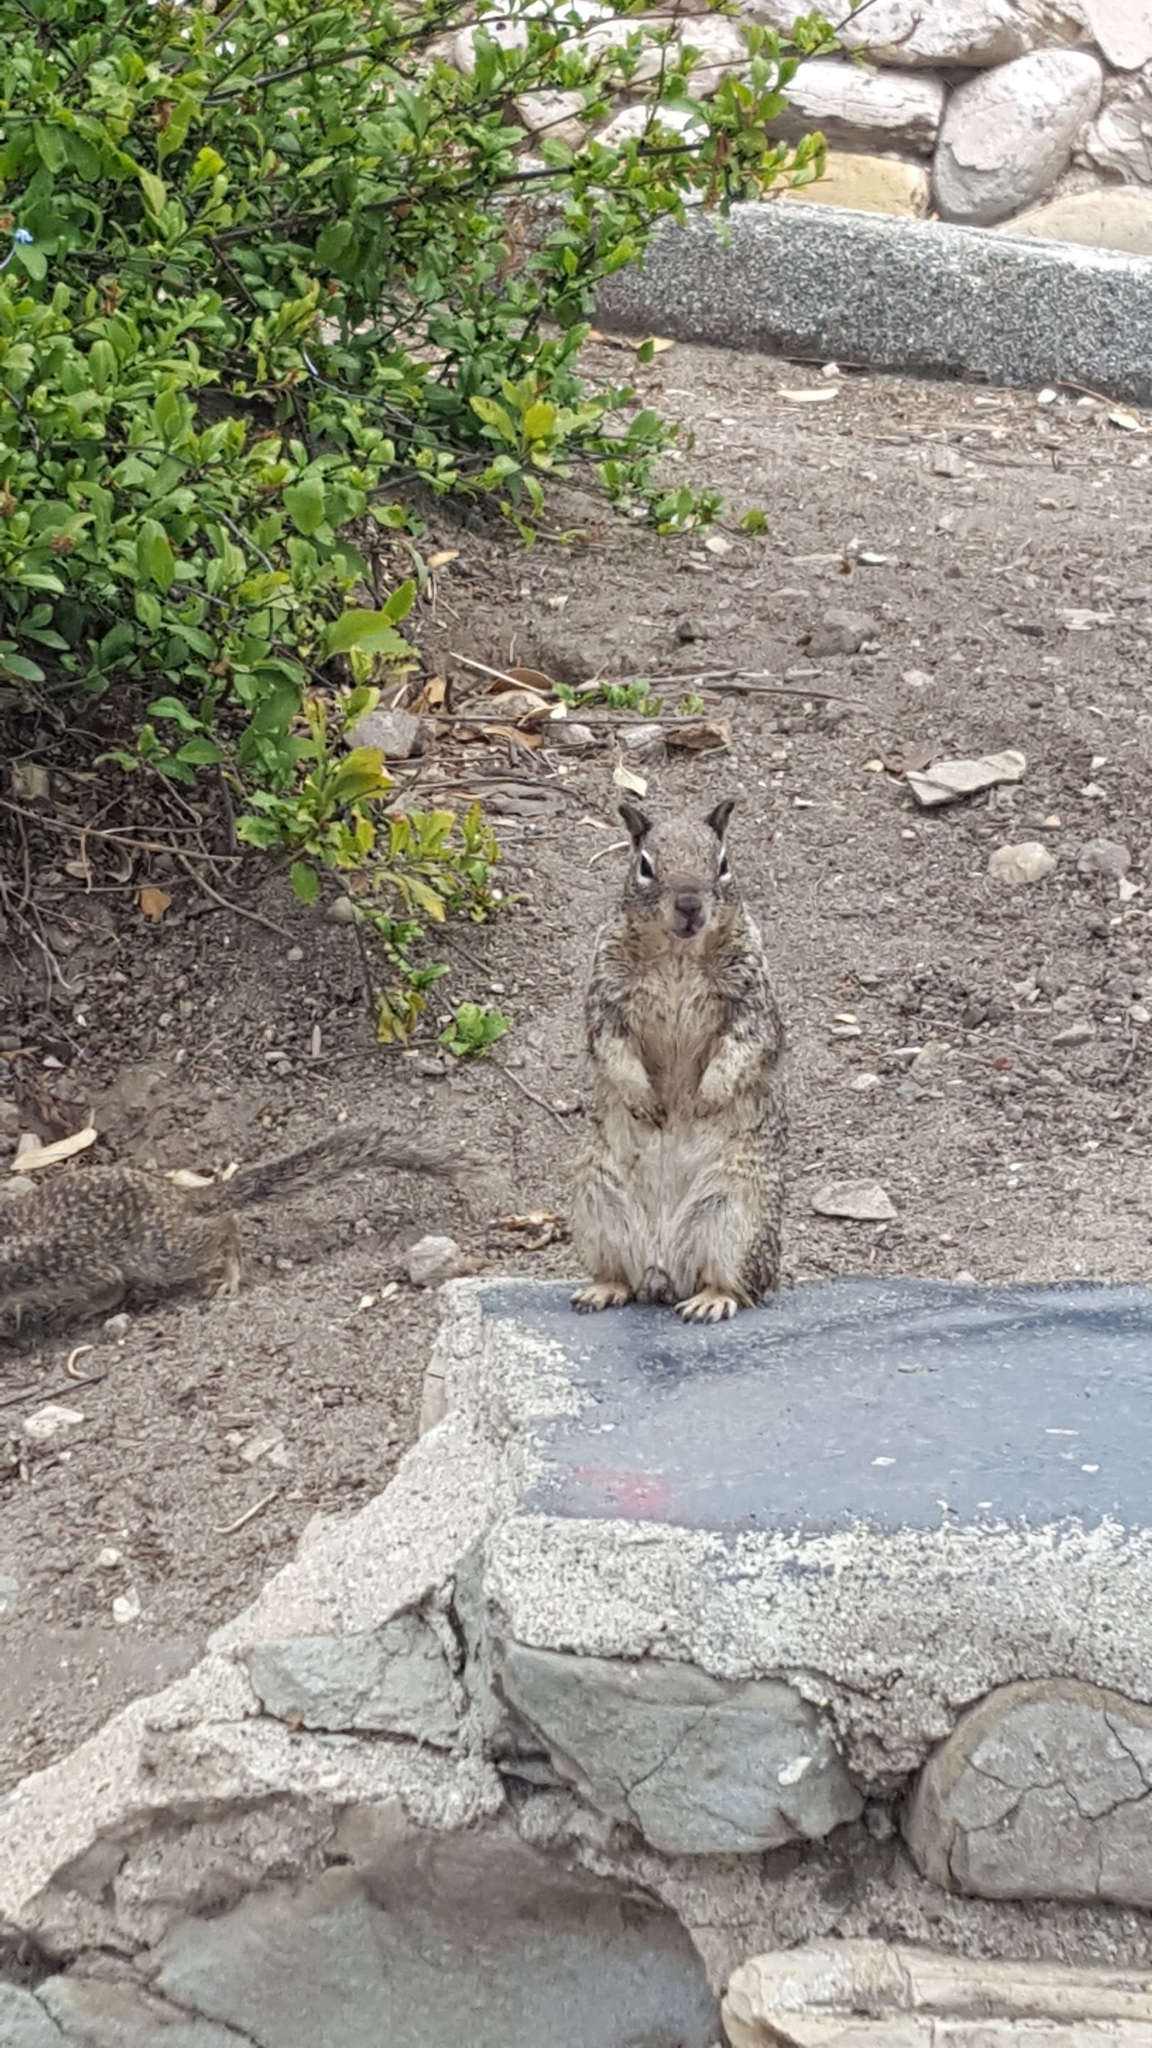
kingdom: Animalia
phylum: Chordata
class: Mammalia
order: Rodentia
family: Sciuridae
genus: Otospermophilus
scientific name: Otospermophilus beecheyi
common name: California ground squirrel
